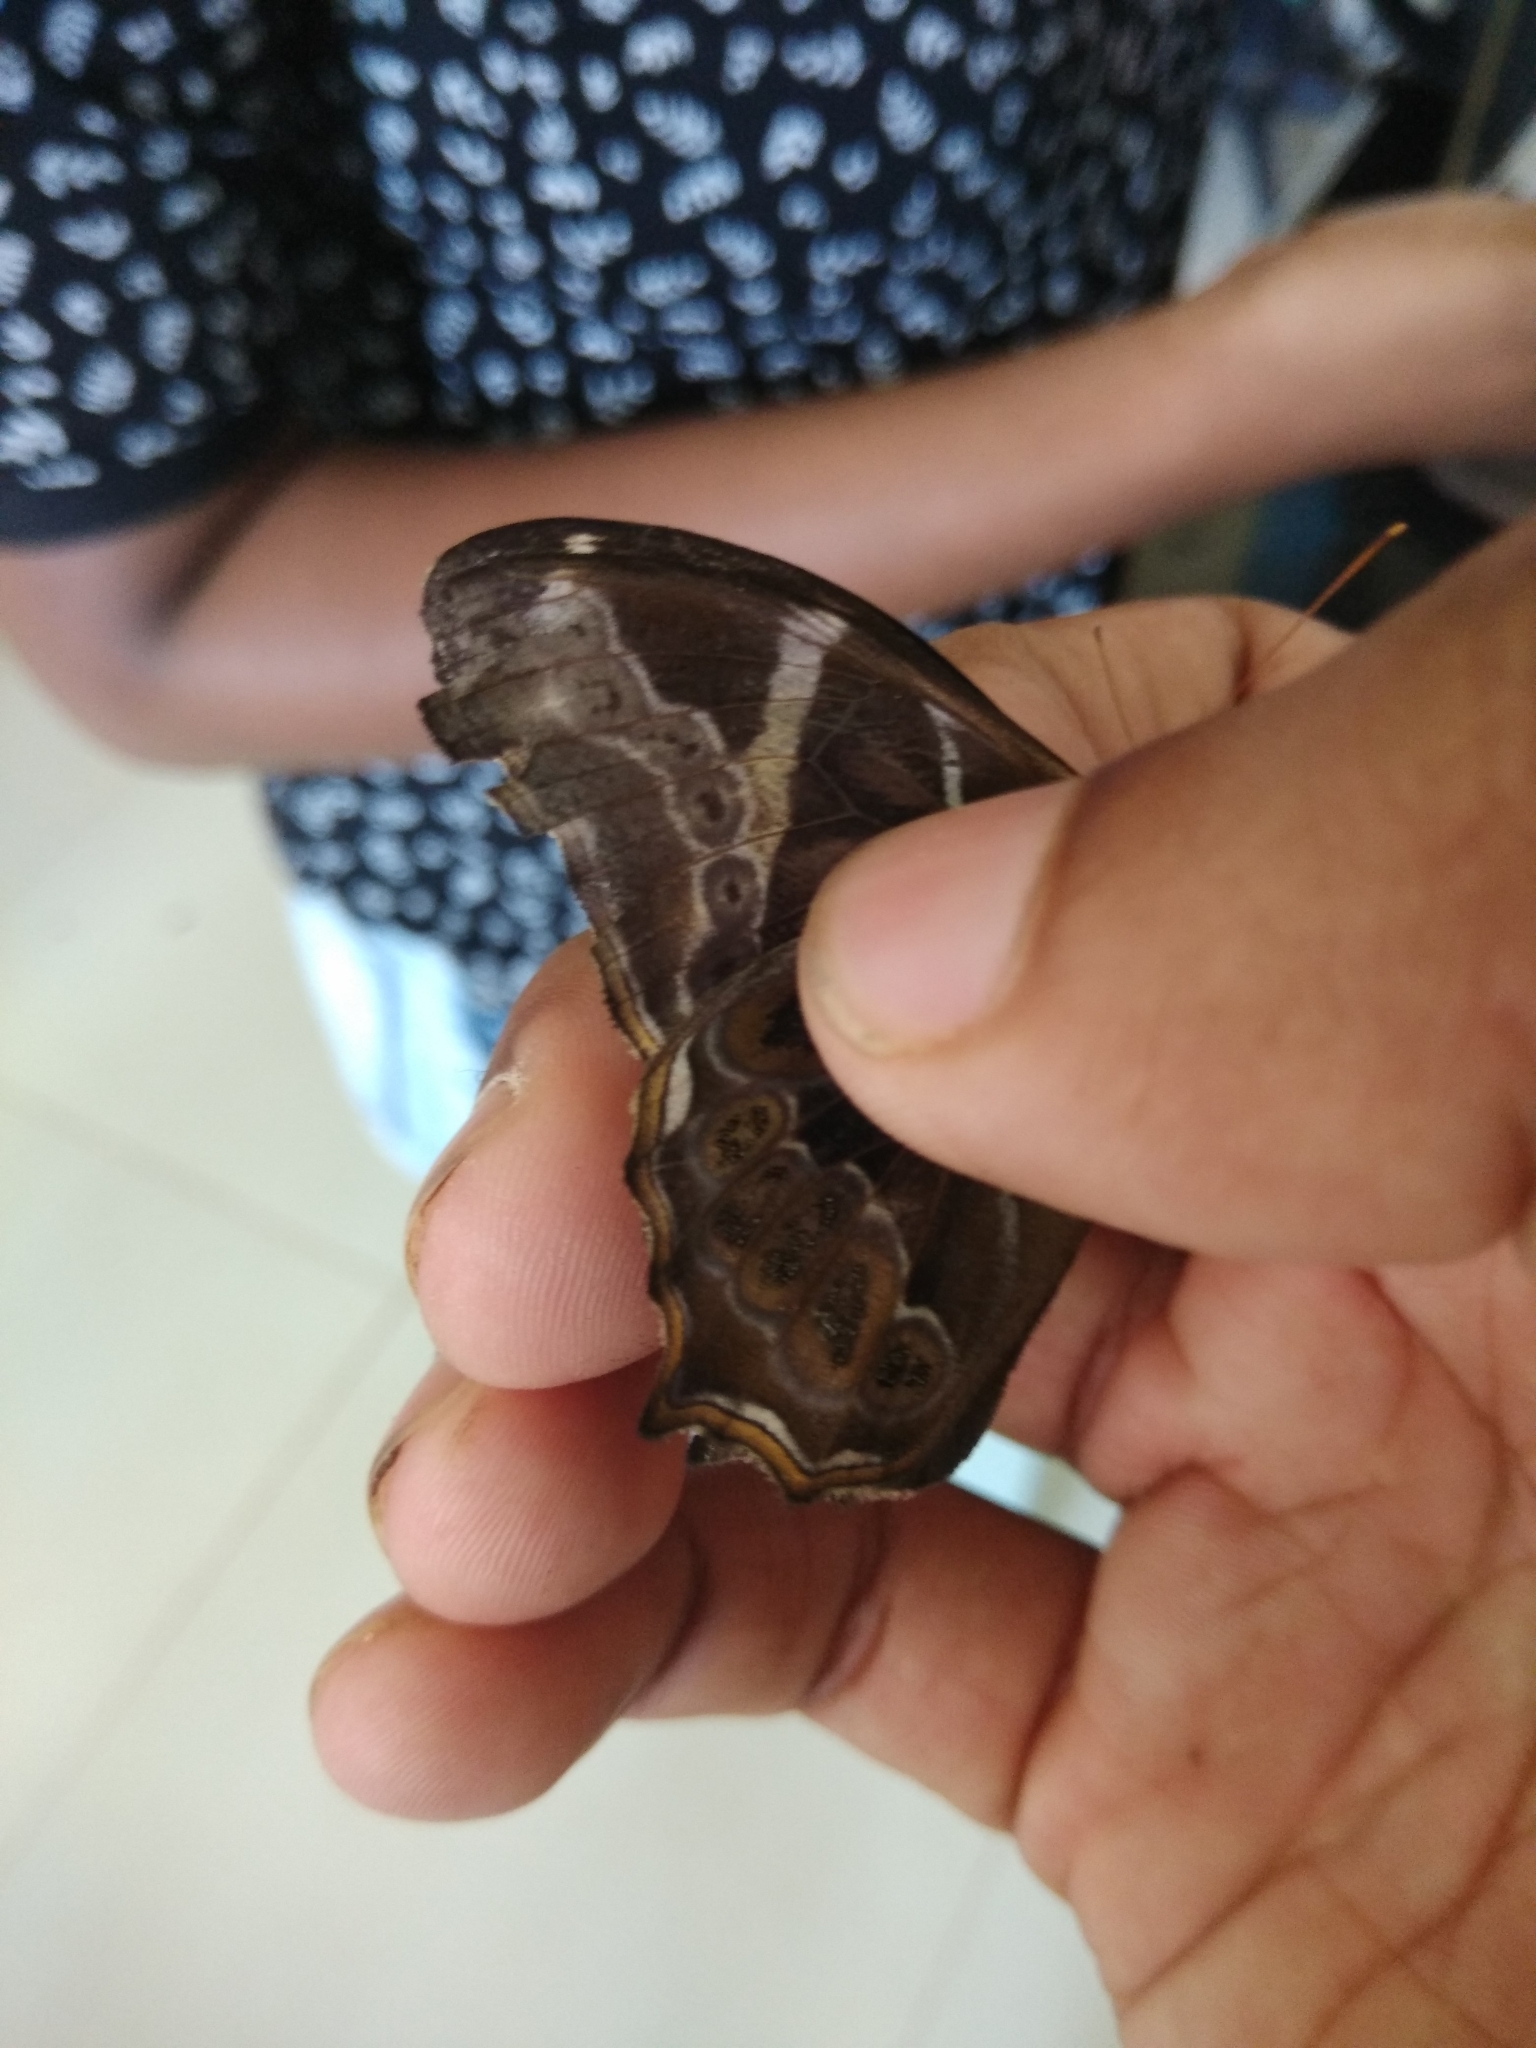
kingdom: Animalia
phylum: Arthropoda
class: Insecta
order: Lepidoptera
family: Nymphalidae
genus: Lethe
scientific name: Lethe europa
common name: Bamboo treebrown
